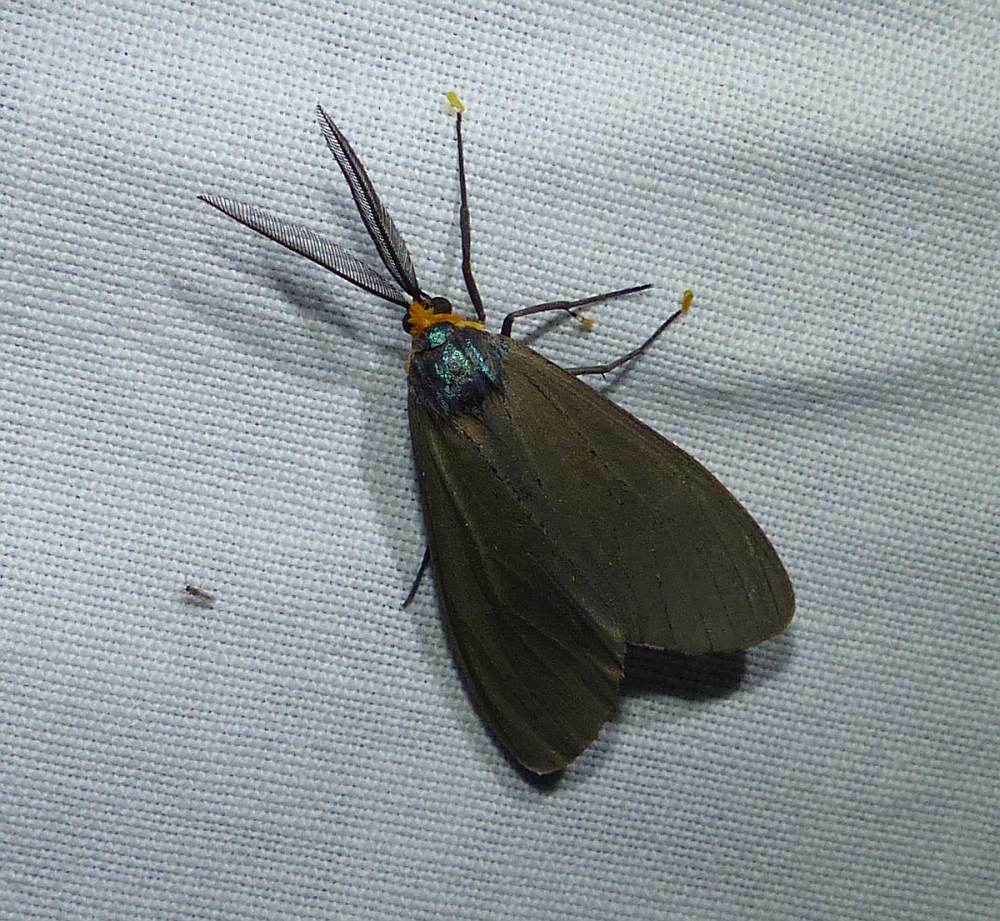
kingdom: Animalia
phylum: Arthropoda
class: Insecta
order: Lepidoptera
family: Erebidae
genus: Ctenucha
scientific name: Ctenucha virginica
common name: Virginia ctenucha moth
